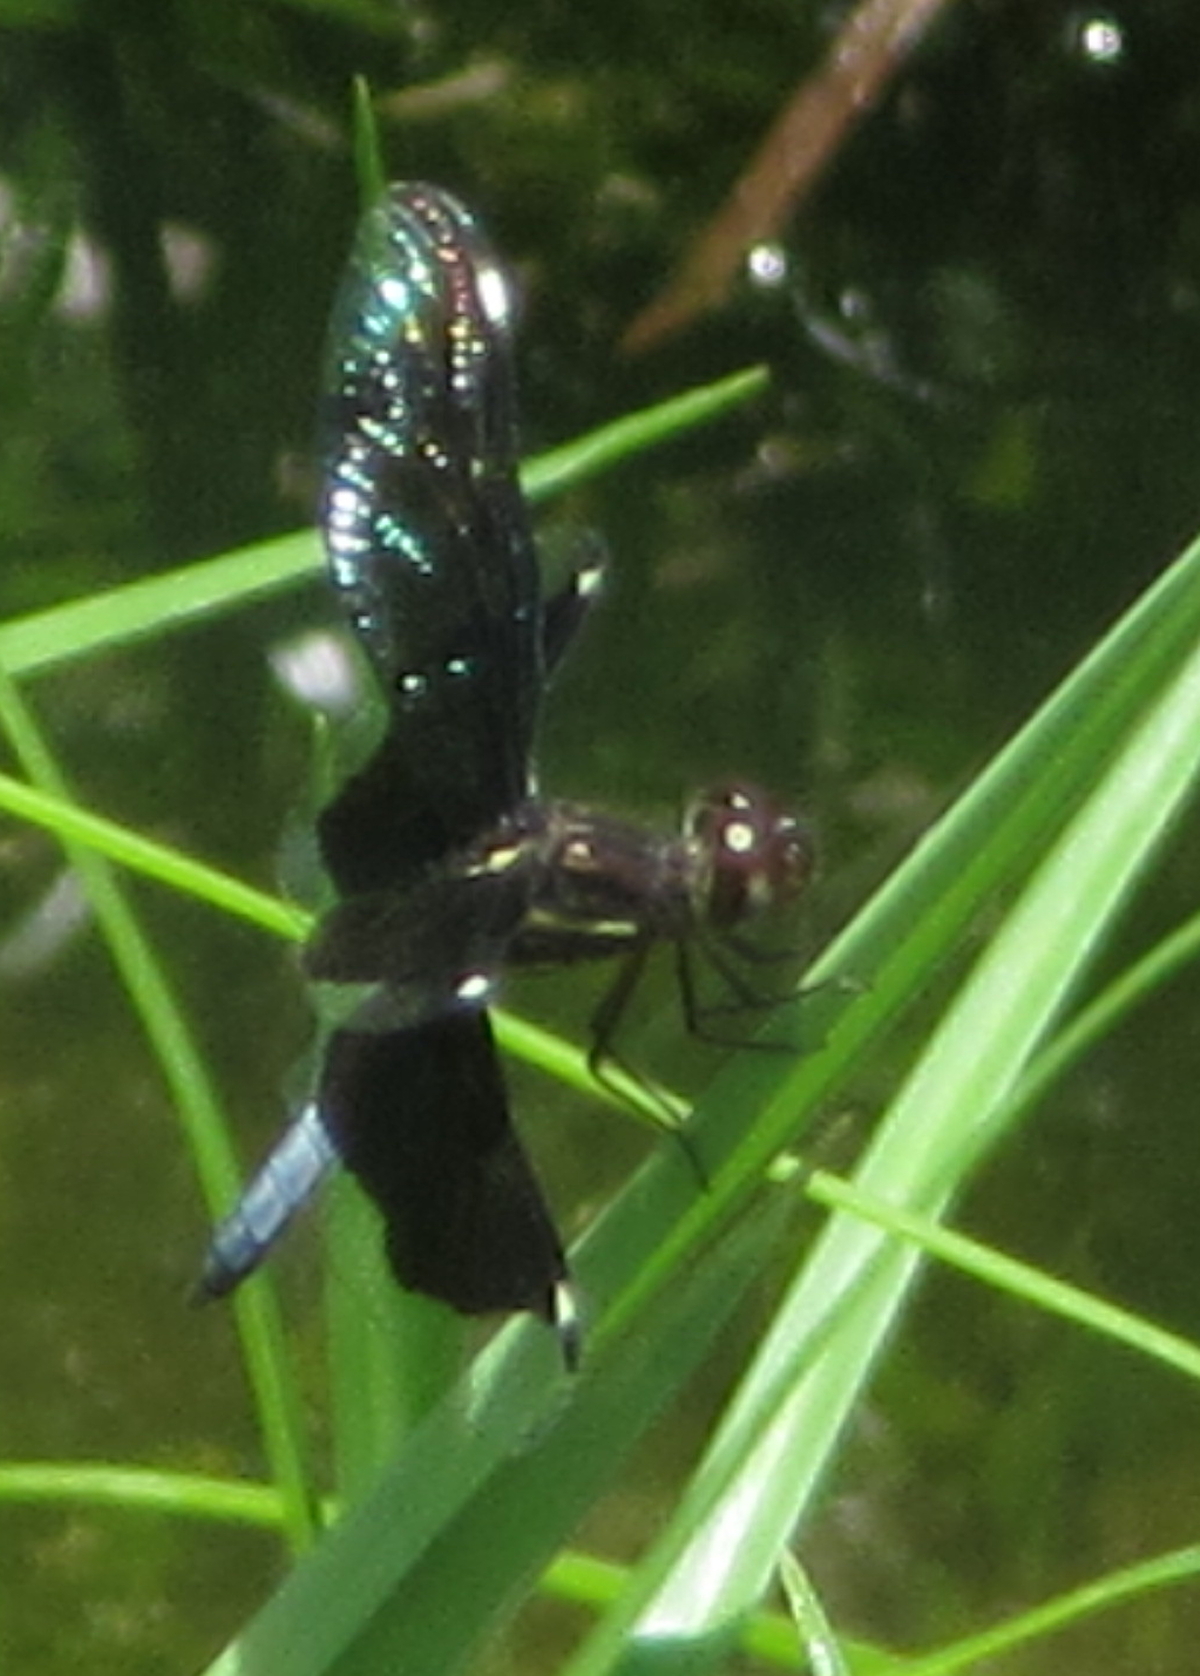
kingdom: Animalia
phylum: Arthropoda
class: Insecta
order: Odonata
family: Libellulidae
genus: Palpopleura
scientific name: Palpopleura lucia
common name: Lucia widow
